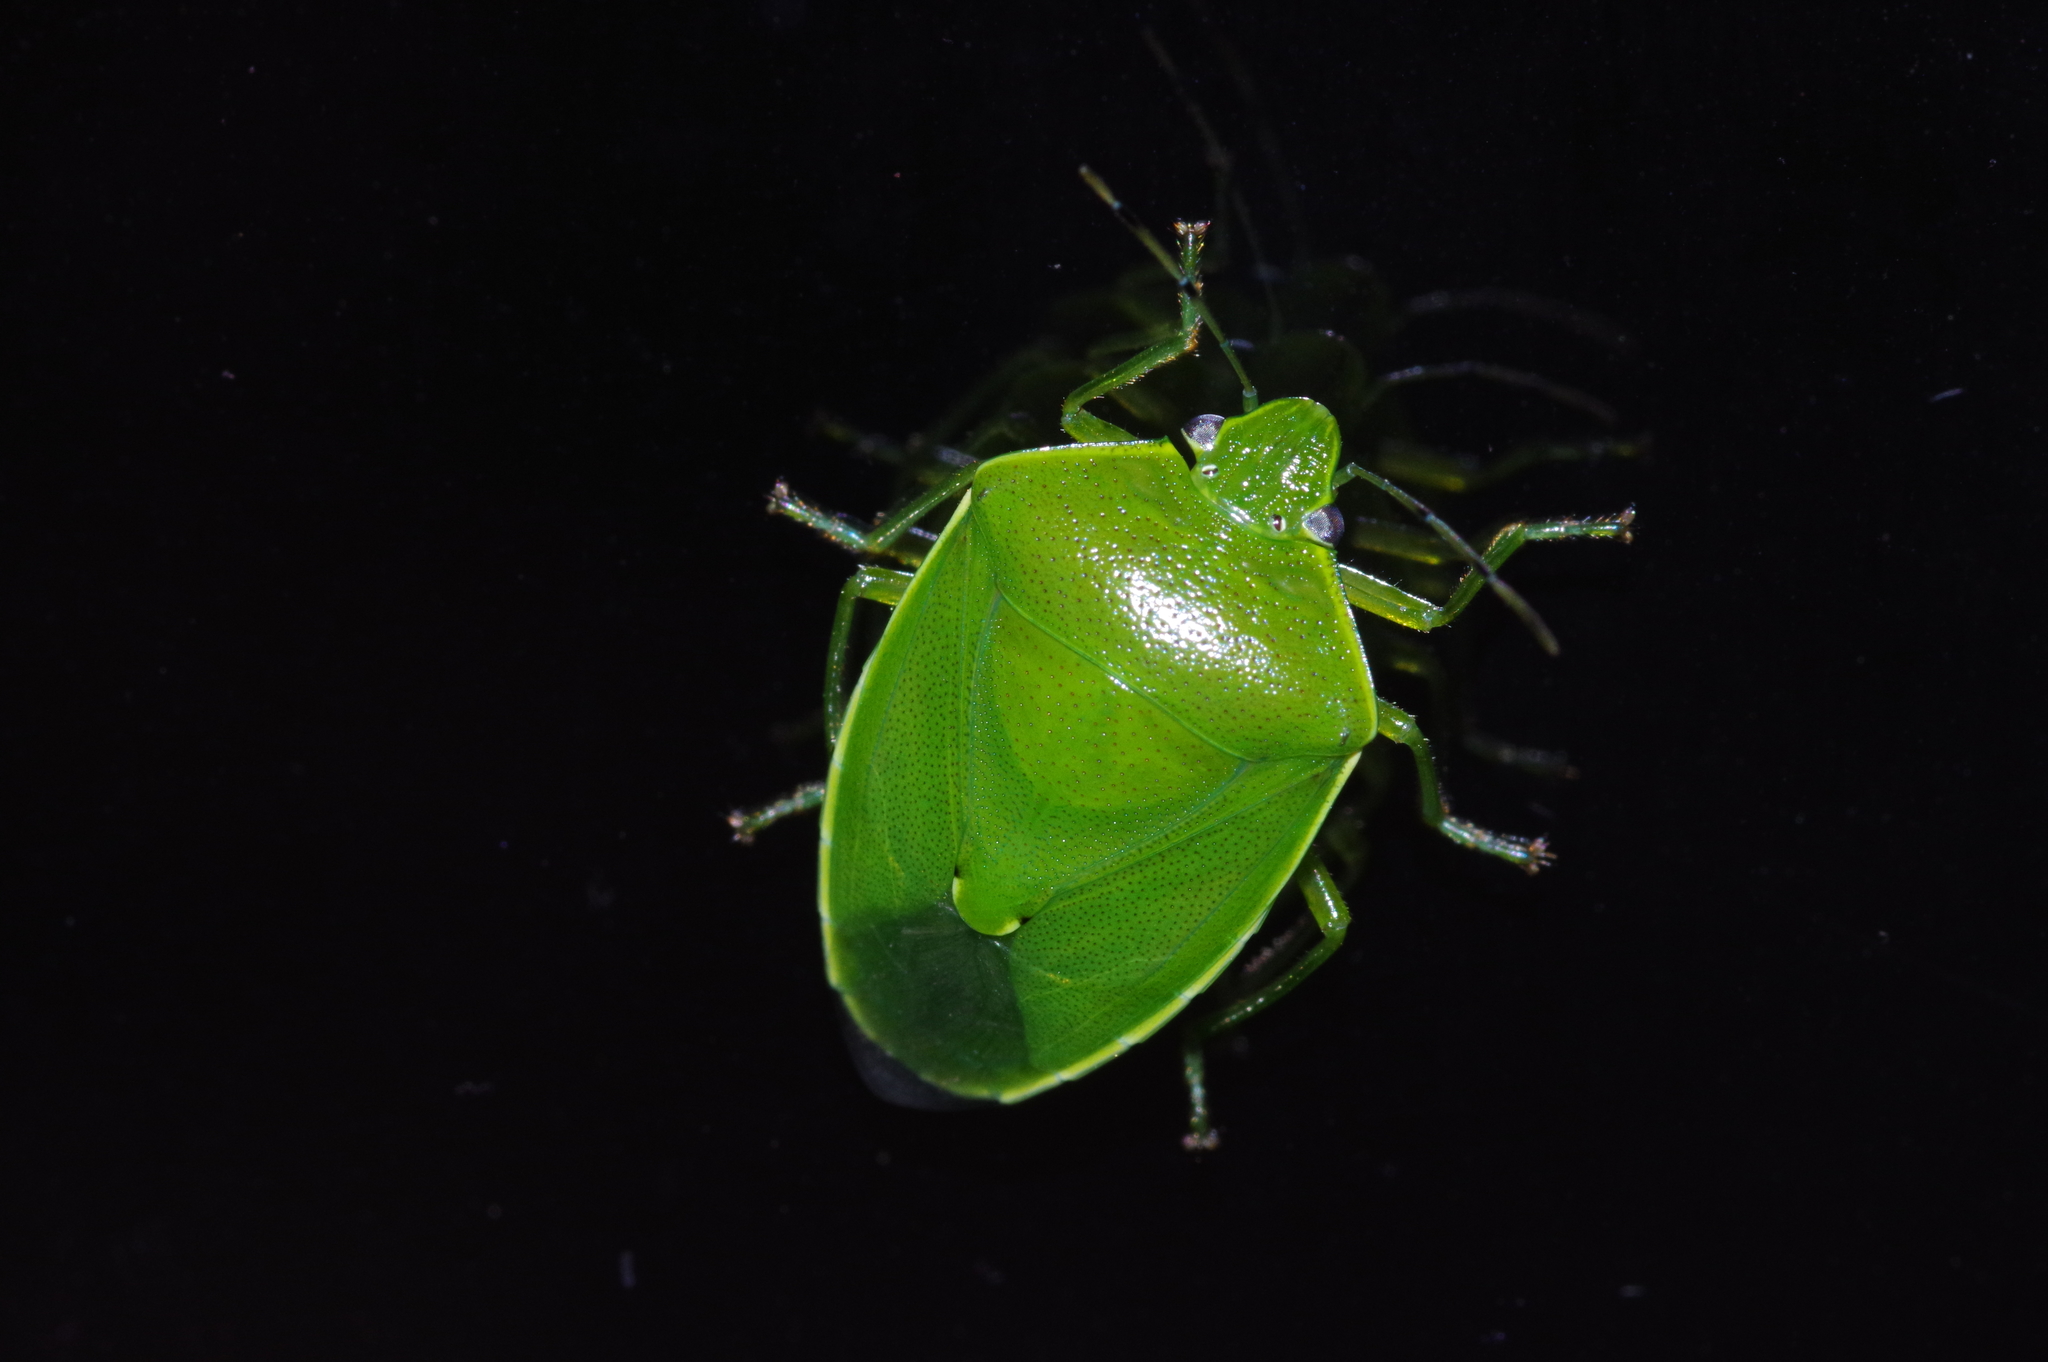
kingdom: Animalia
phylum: Arthropoda
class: Insecta
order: Hemiptera
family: Pentatomidae
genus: Glaucias
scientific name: Glaucias subpunctatus
